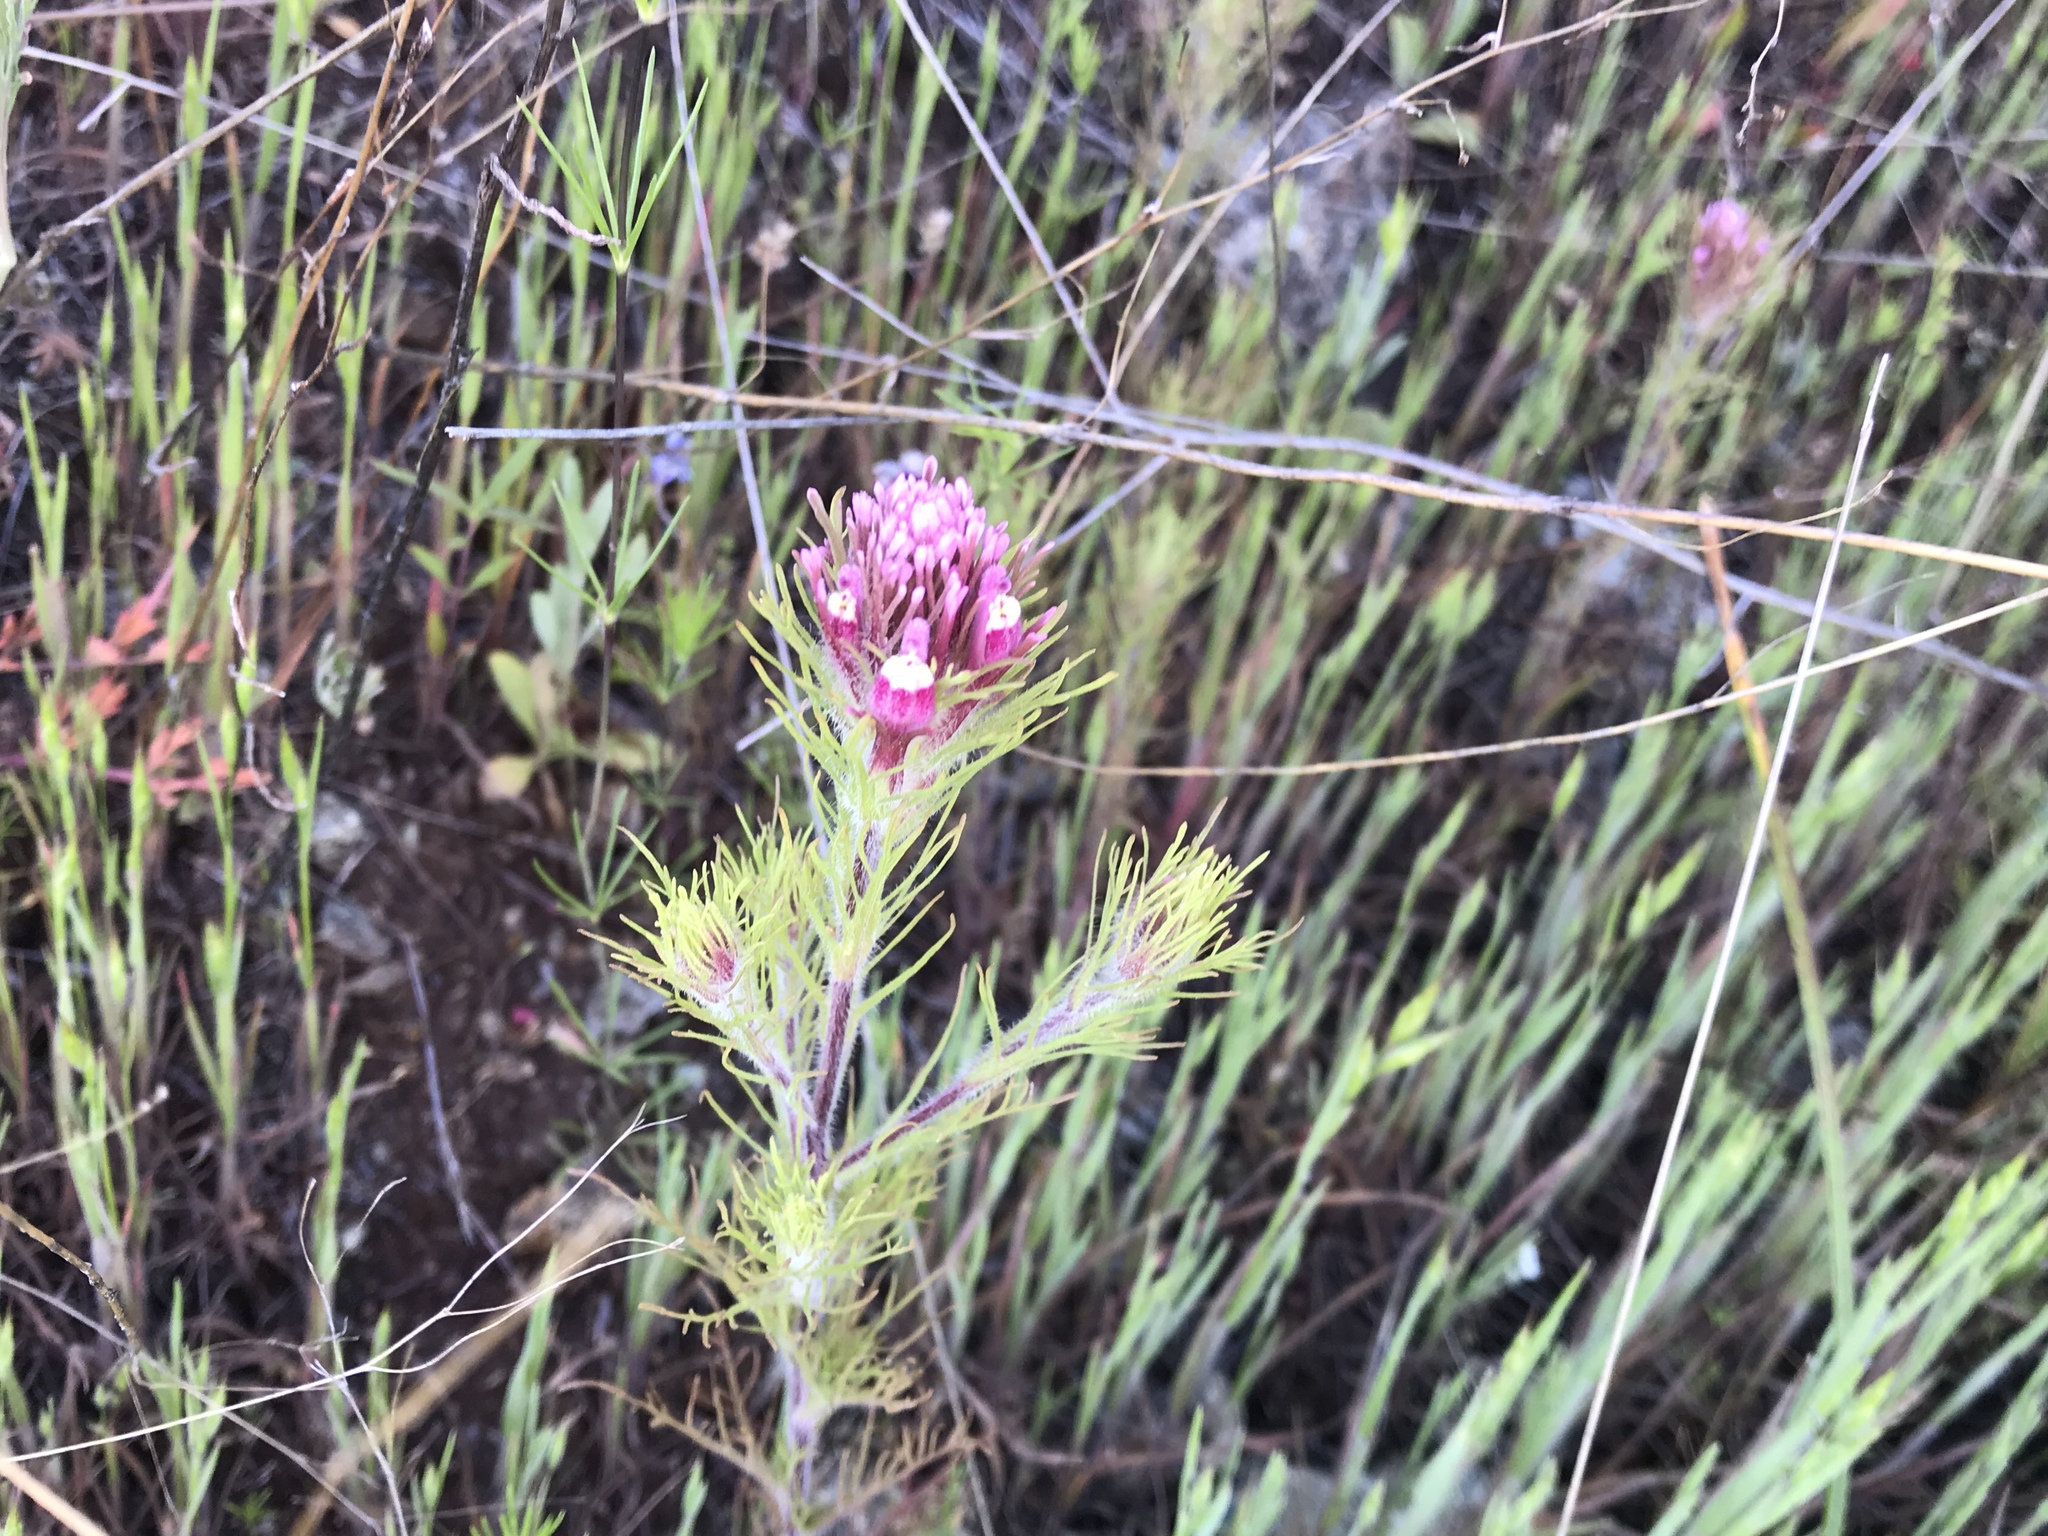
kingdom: Plantae
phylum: Tracheophyta
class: Magnoliopsida
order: Lamiales
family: Orobanchaceae
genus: Castilleja
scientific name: Castilleja exserta
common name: Purple owl-clover
